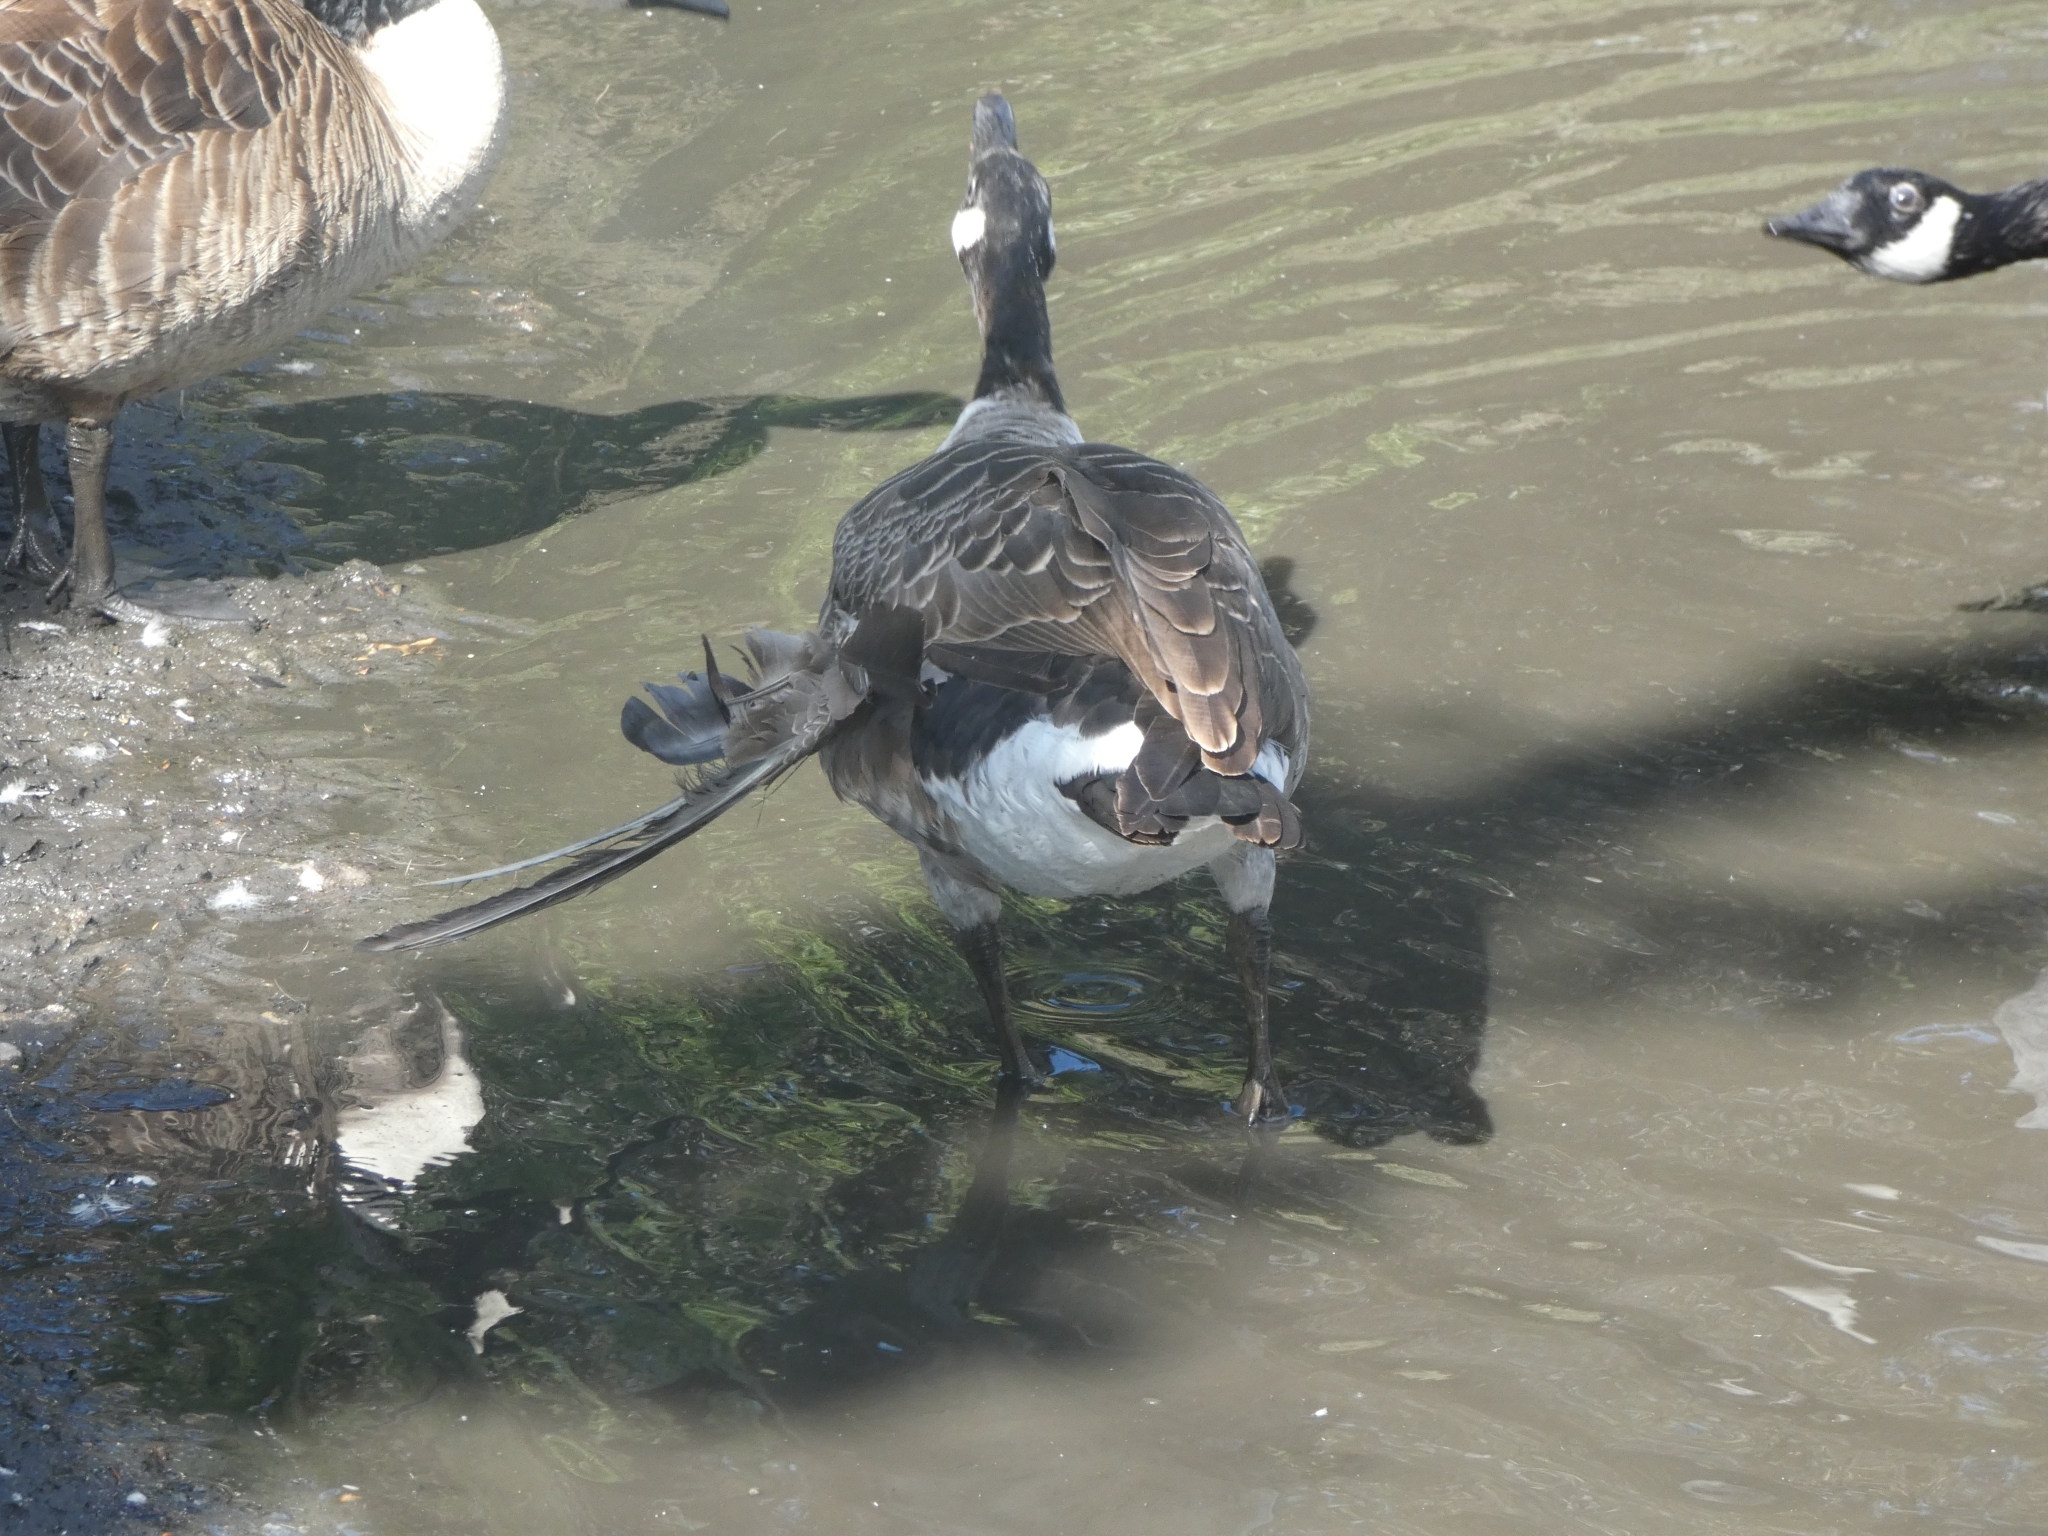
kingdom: Animalia
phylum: Chordata
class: Aves
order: Anseriformes
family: Anatidae
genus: Branta
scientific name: Branta canadensis
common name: Canada goose
